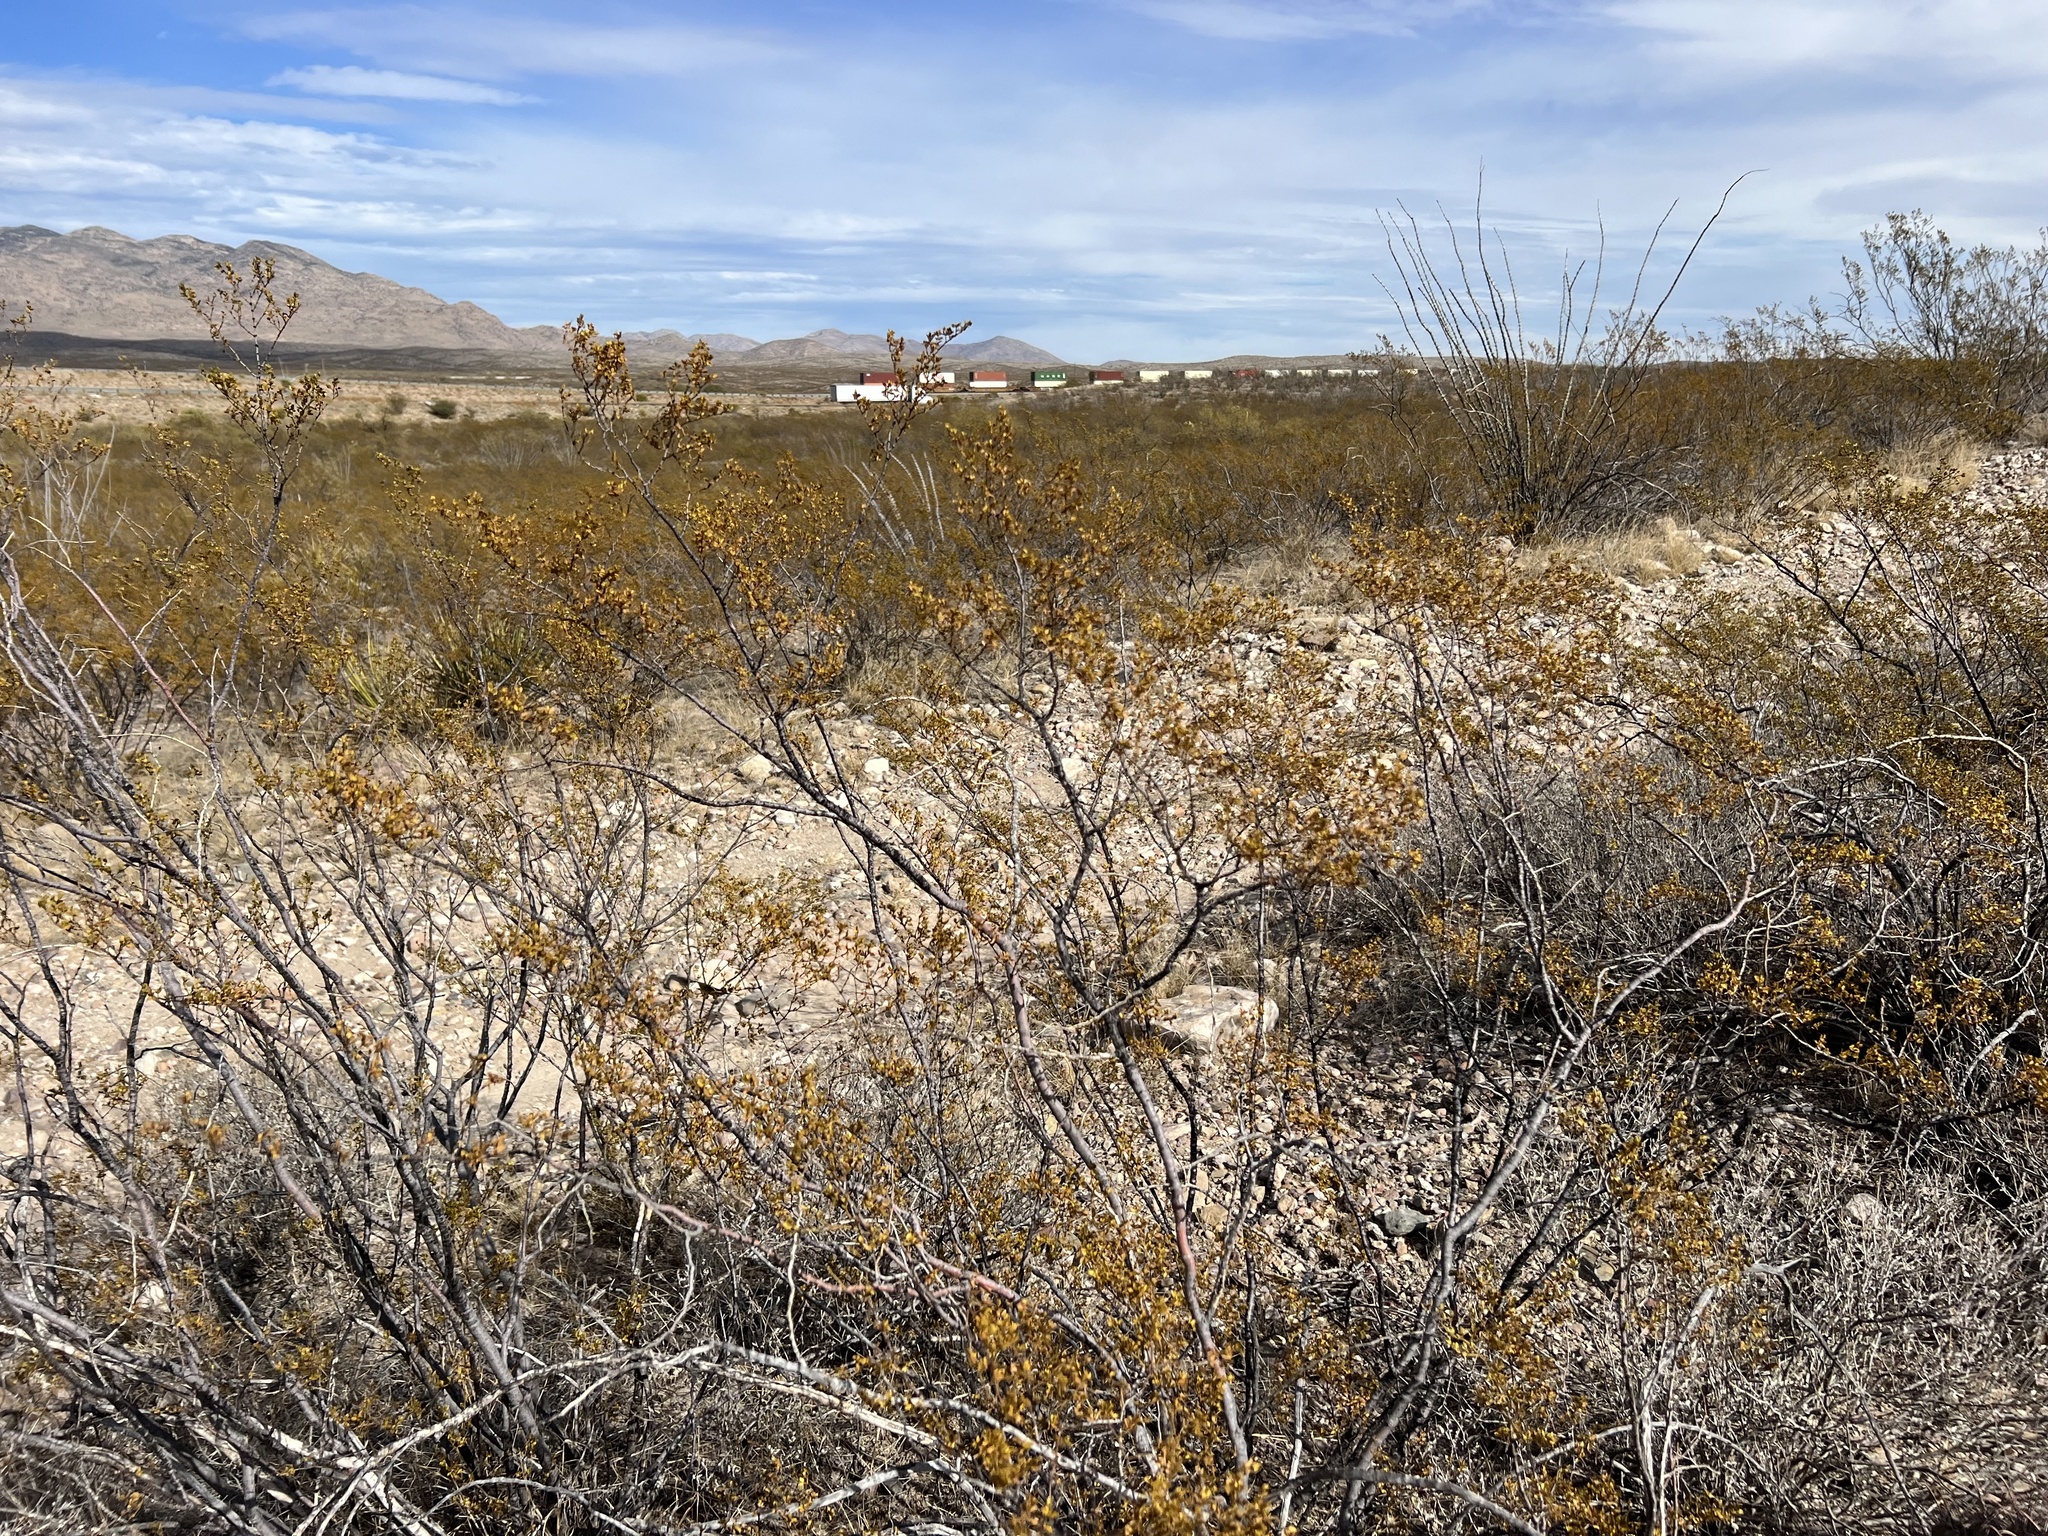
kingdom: Plantae
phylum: Tracheophyta
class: Magnoliopsida
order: Zygophyllales
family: Zygophyllaceae
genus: Larrea
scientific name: Larrea tridentata
